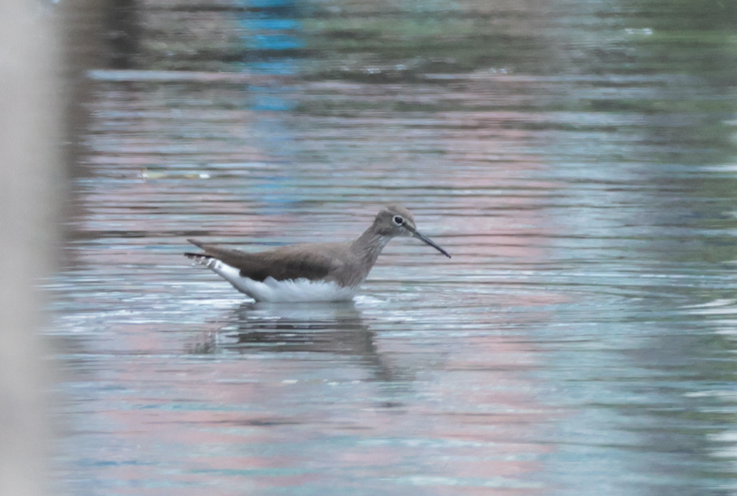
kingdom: Animalia
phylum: Chordata
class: Aves
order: Charadriiformes
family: Scolopacidae
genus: Tringa
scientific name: Tringa ochropus
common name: Green sandpiper
